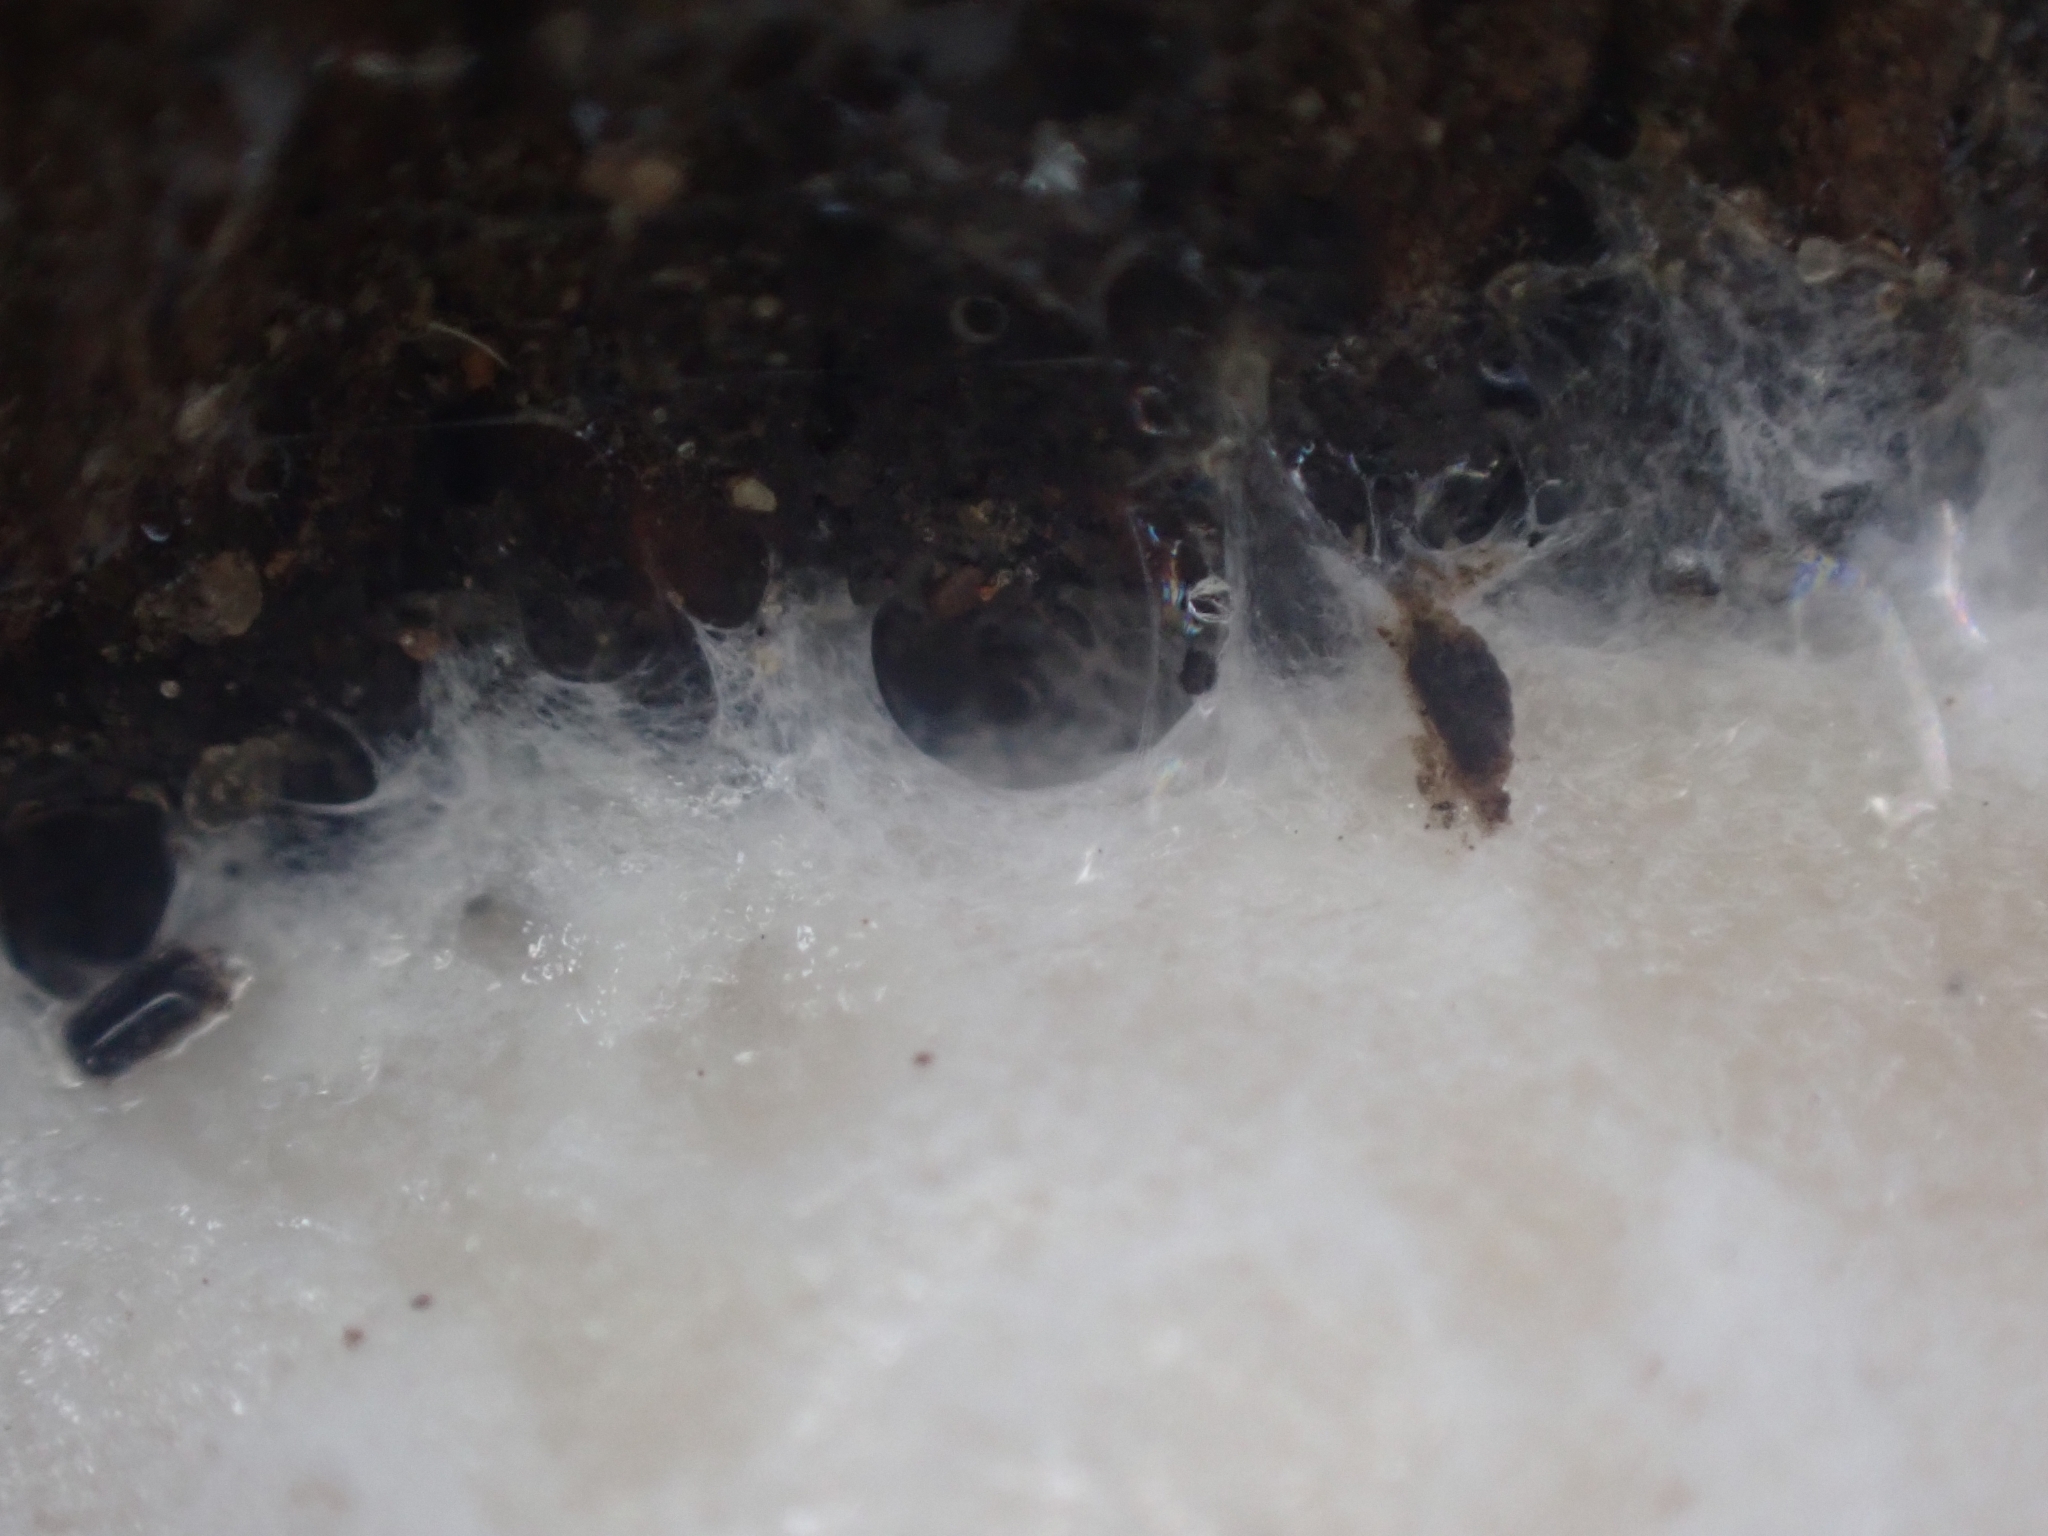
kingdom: Protozoa
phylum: Mycetozoa
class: Myxomycetes
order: Cribrariales
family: Tubiferaceae
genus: Reticularia
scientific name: Reticularia lycoperdon
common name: False puffball
